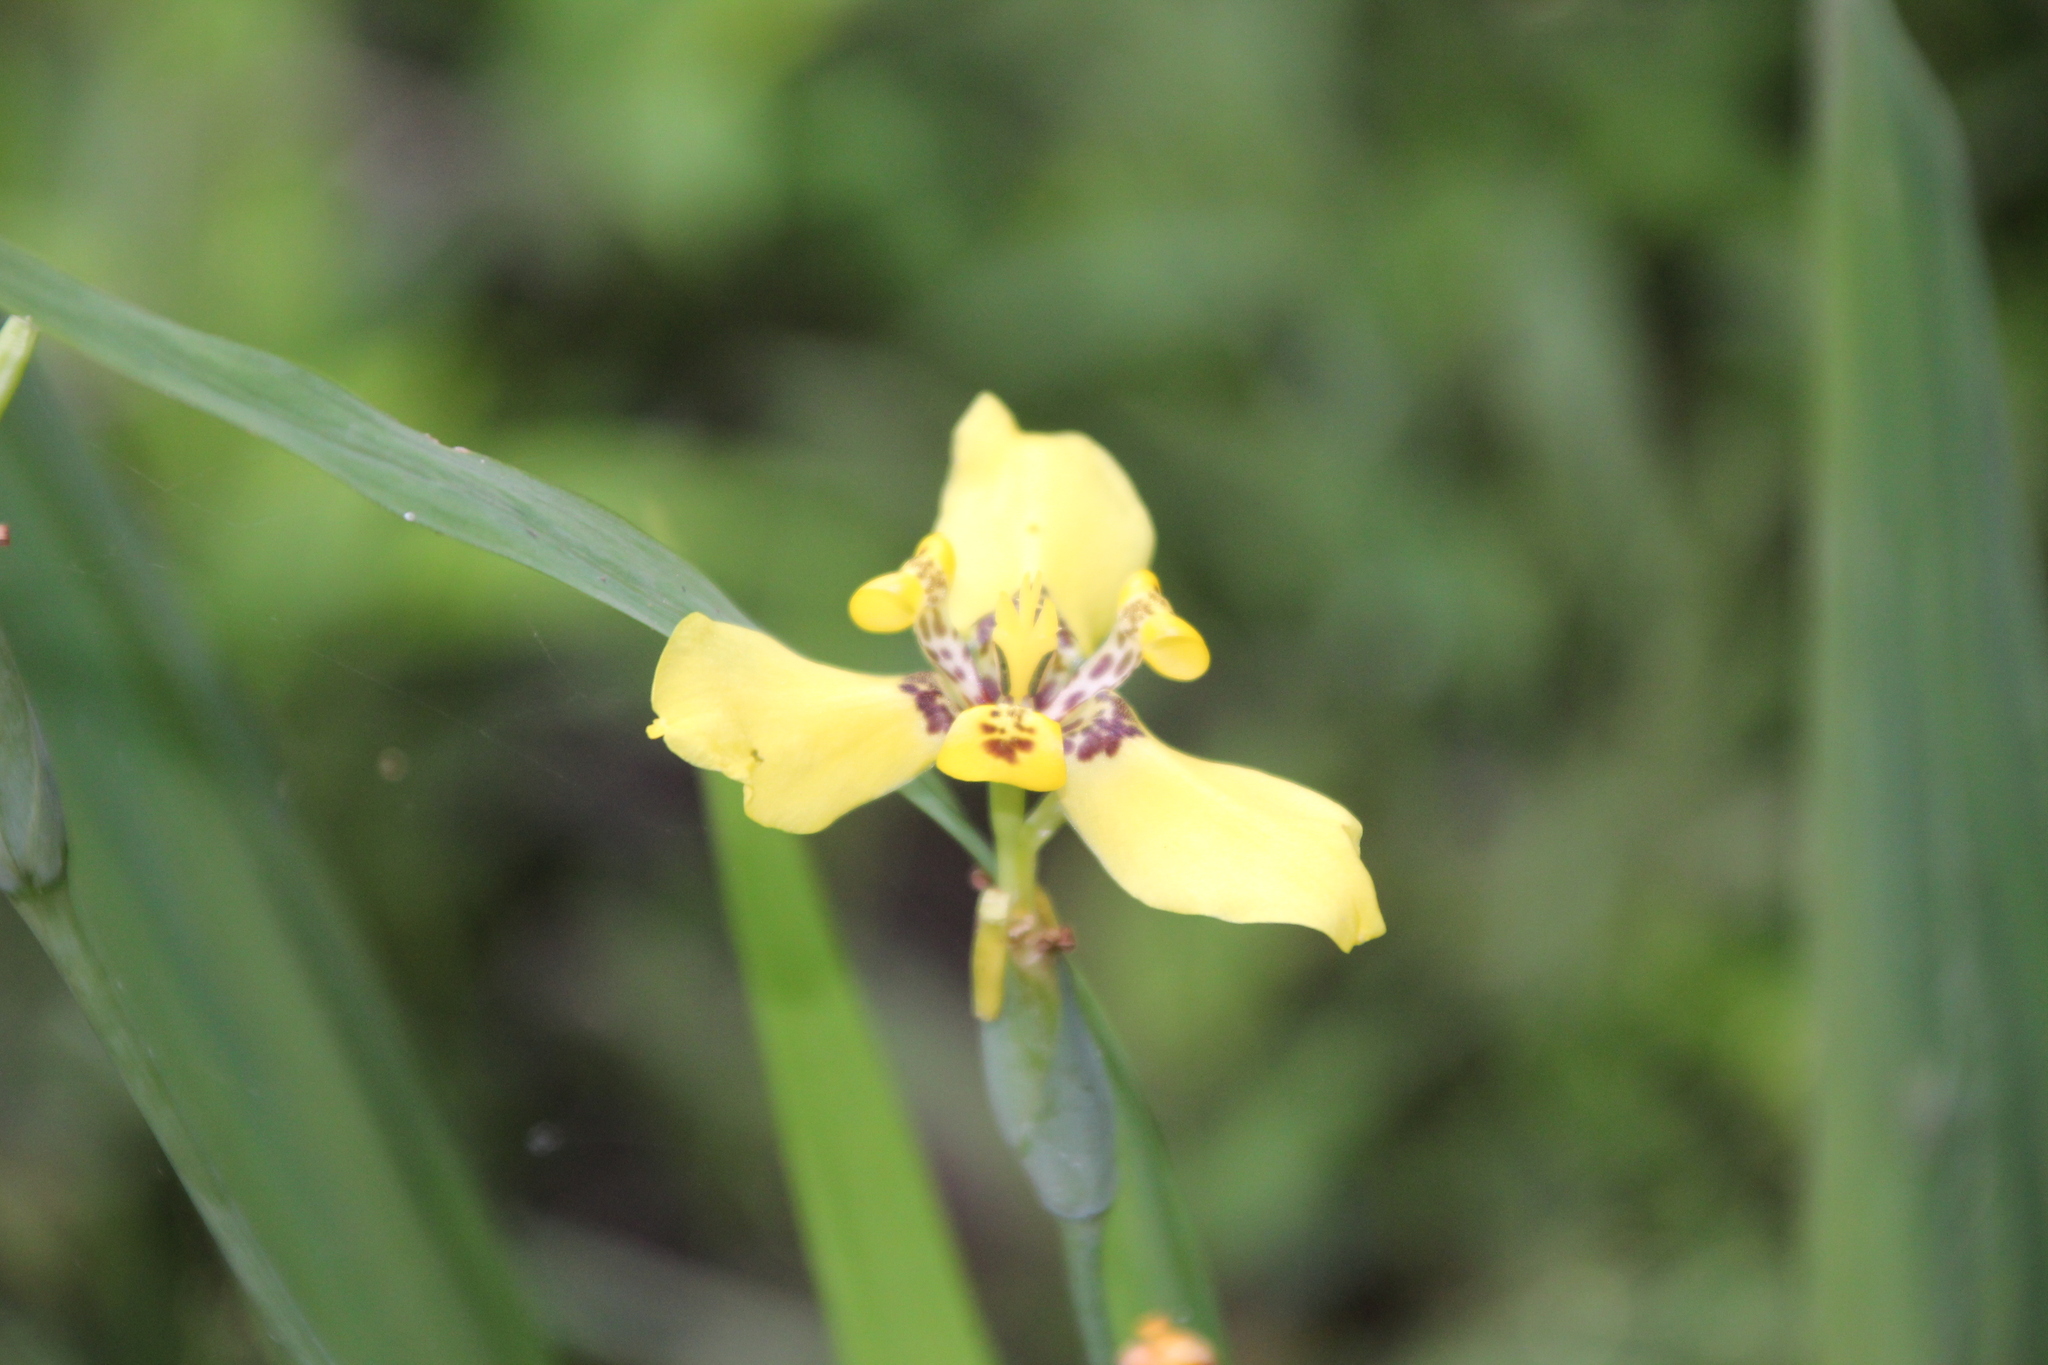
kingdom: Plantae
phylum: Tracheophyta
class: Liliopsida
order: Asparagales
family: Iridaceae
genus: Trimezia
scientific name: Trimezia steyermarkii
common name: Trimezia
